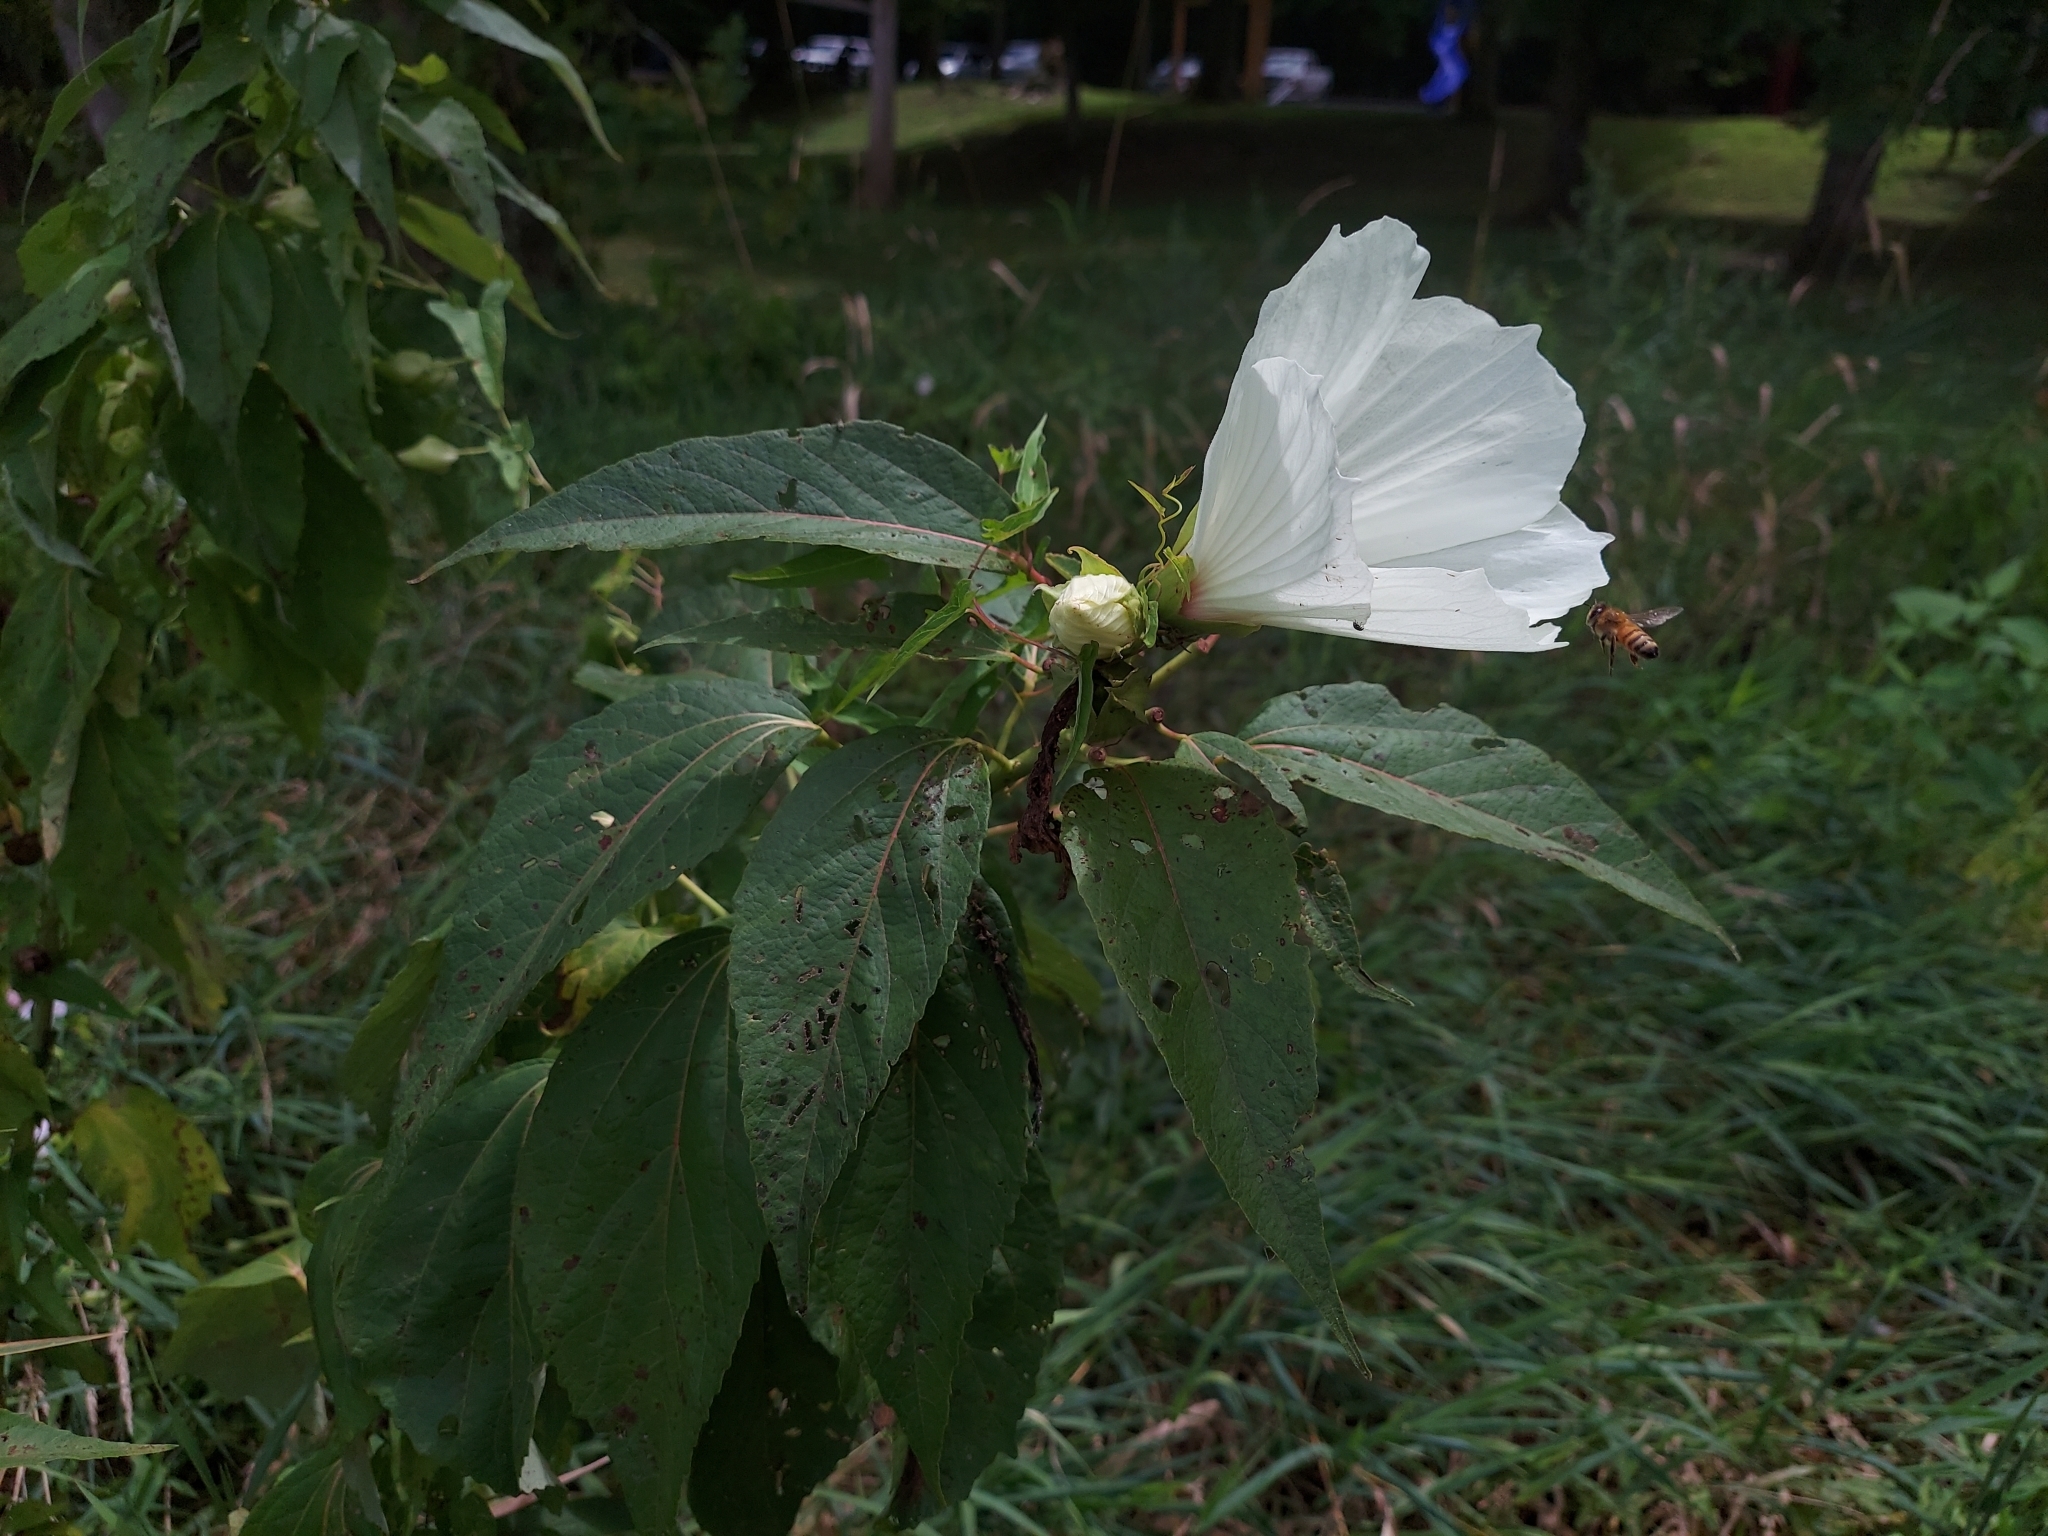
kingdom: Plantae
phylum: Tracheophyta
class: Magnoliopsida
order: Malvales
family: Malvaceae
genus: Hibiscus
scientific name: Hibiscus moscheutos
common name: Common rose-mallow
